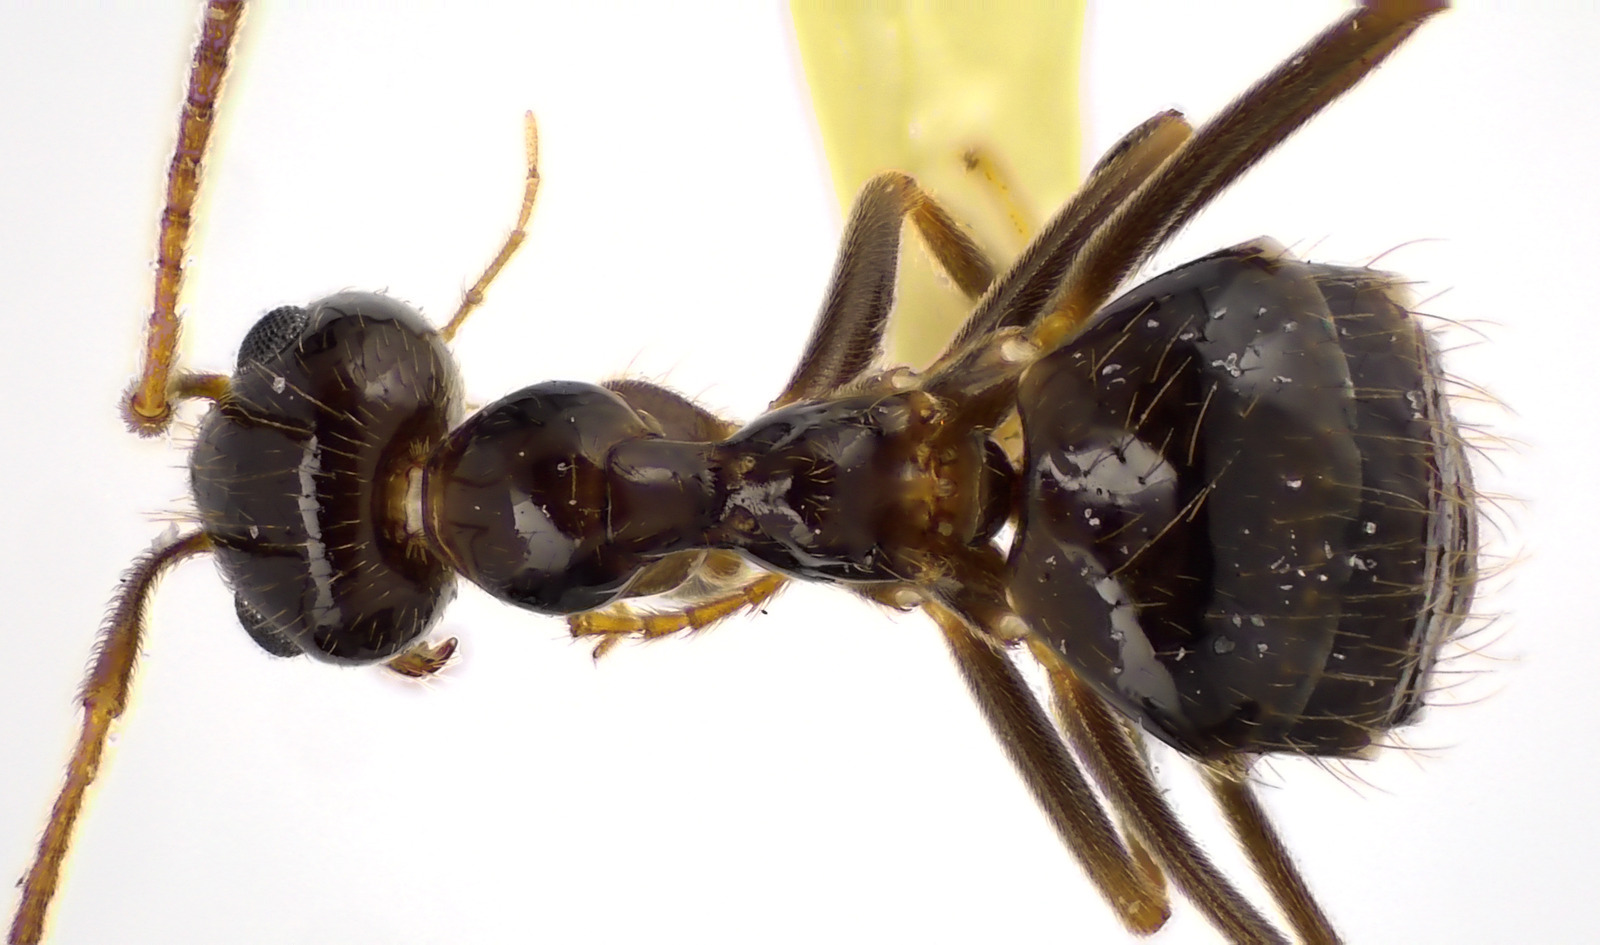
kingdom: Animalia
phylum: Arthropoda
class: Insecta
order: Hymenoptera
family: Formicidae
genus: Prenolepis
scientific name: Prenolepis imparis
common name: Small honey ant
